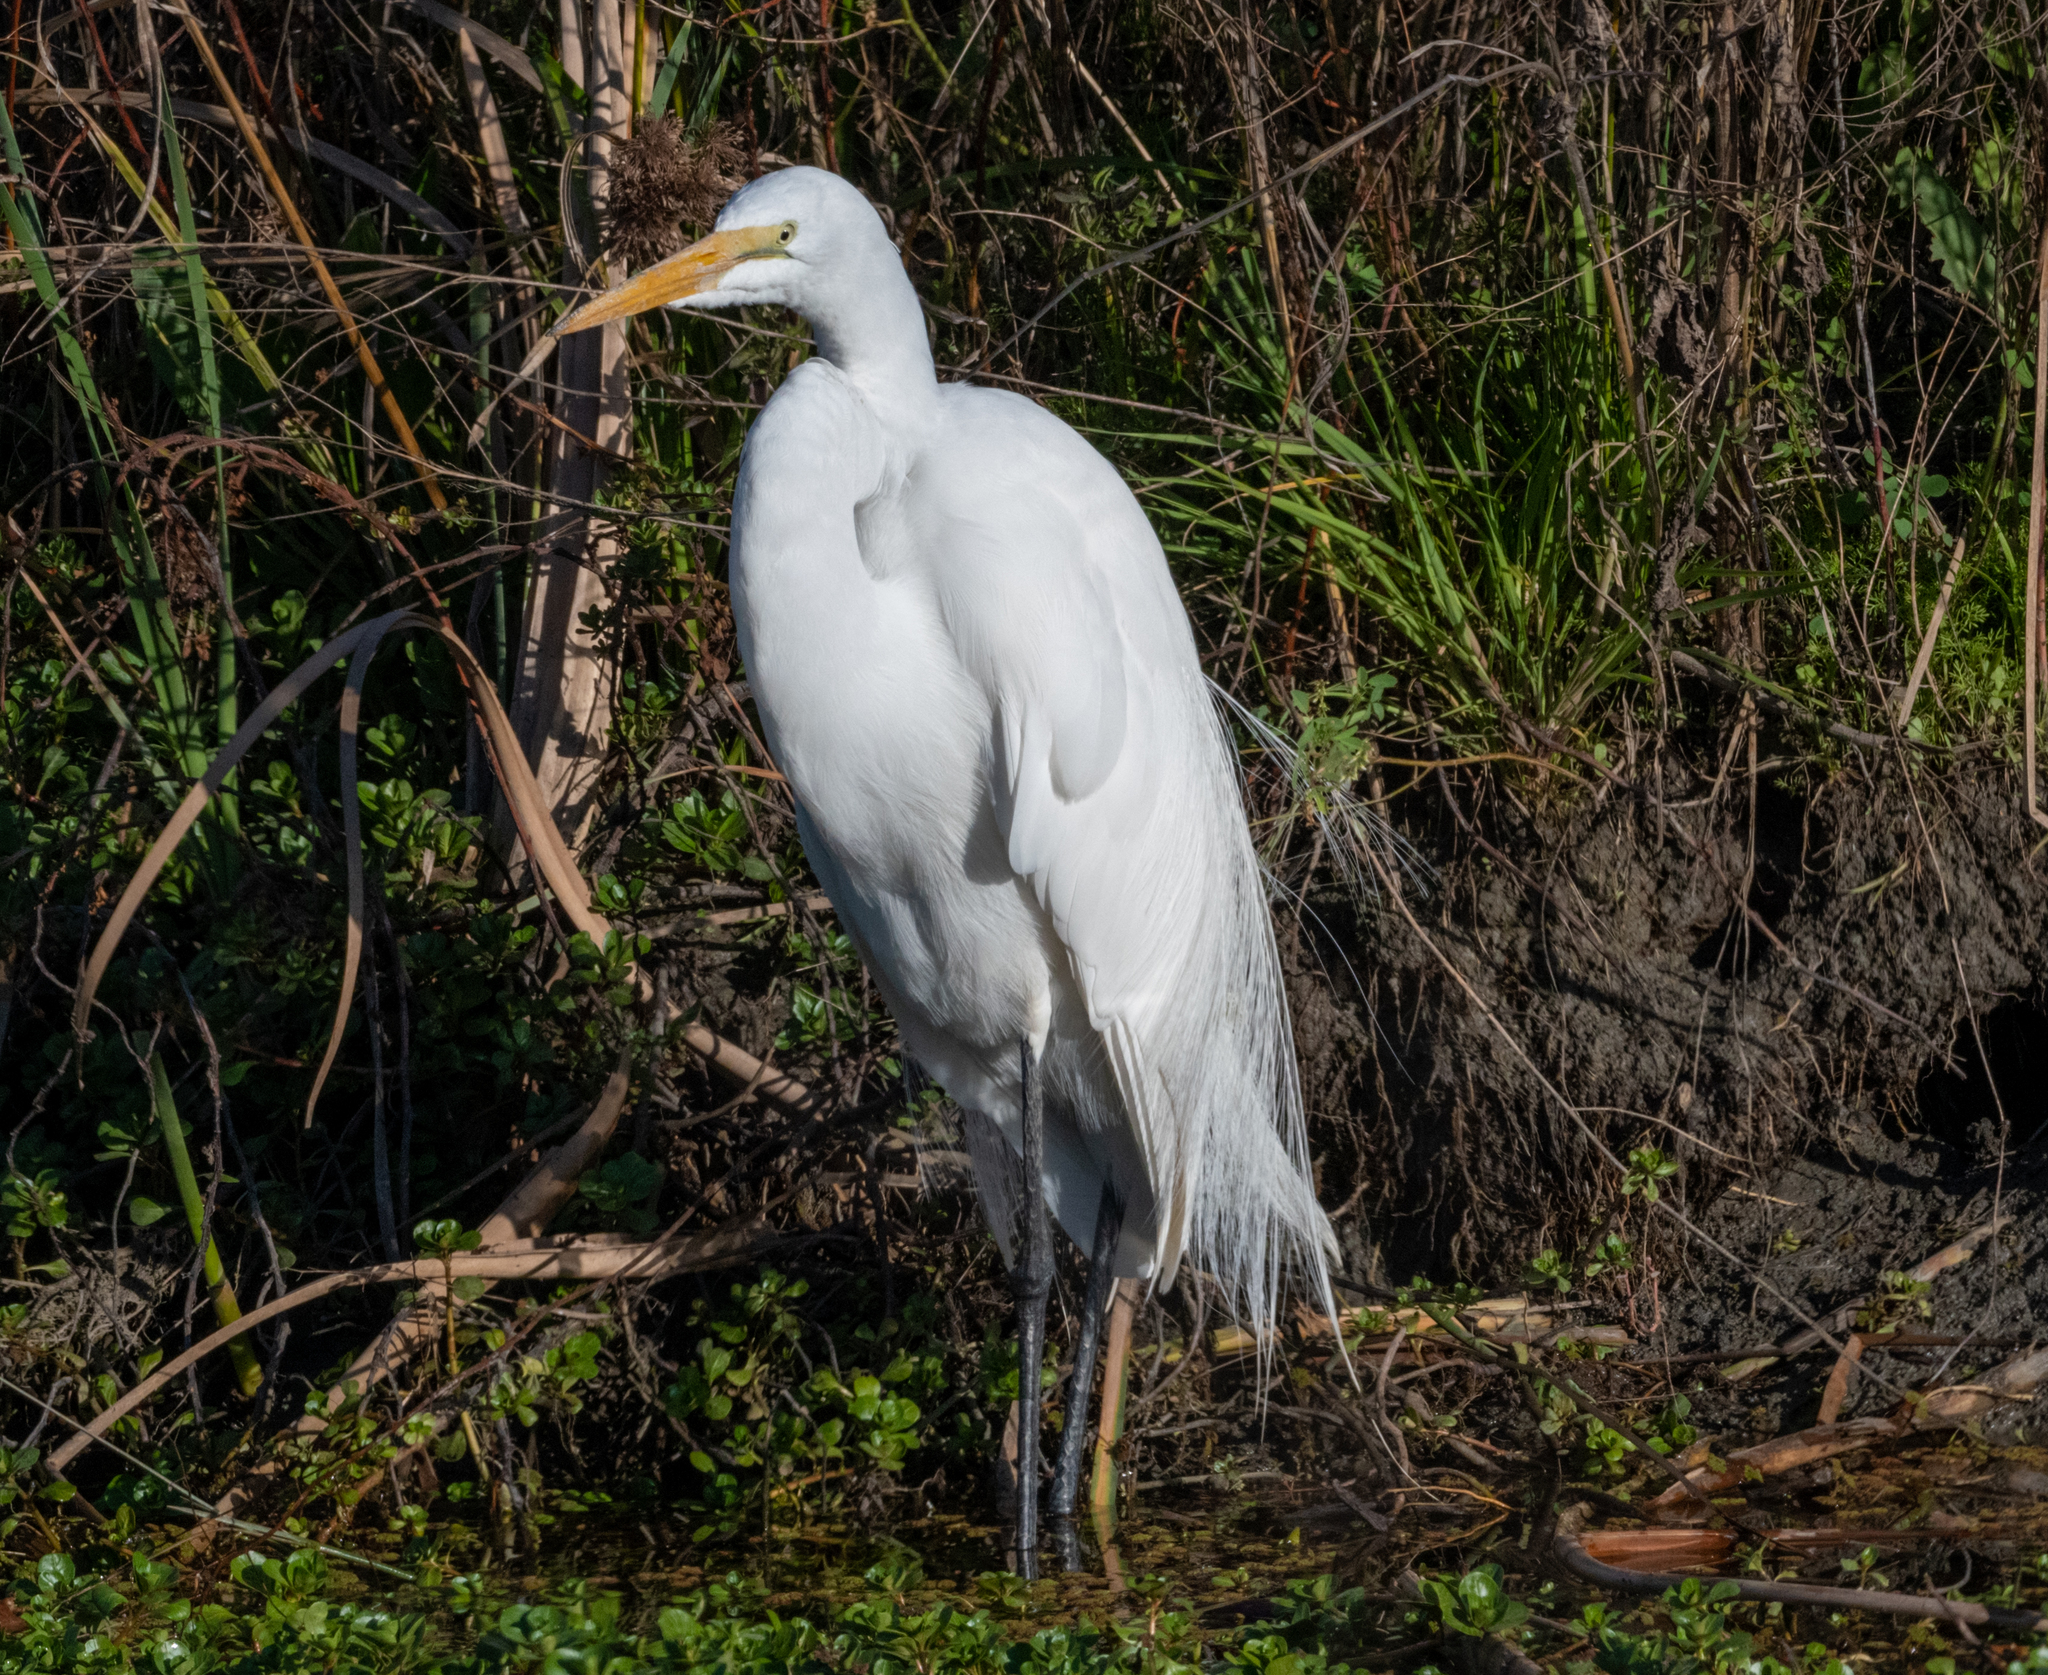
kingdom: Animalia
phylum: Chordata
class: Aves
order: Pelecaniformes
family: Ardeidae
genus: Ardea
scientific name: Ardea alba
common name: Great egret
